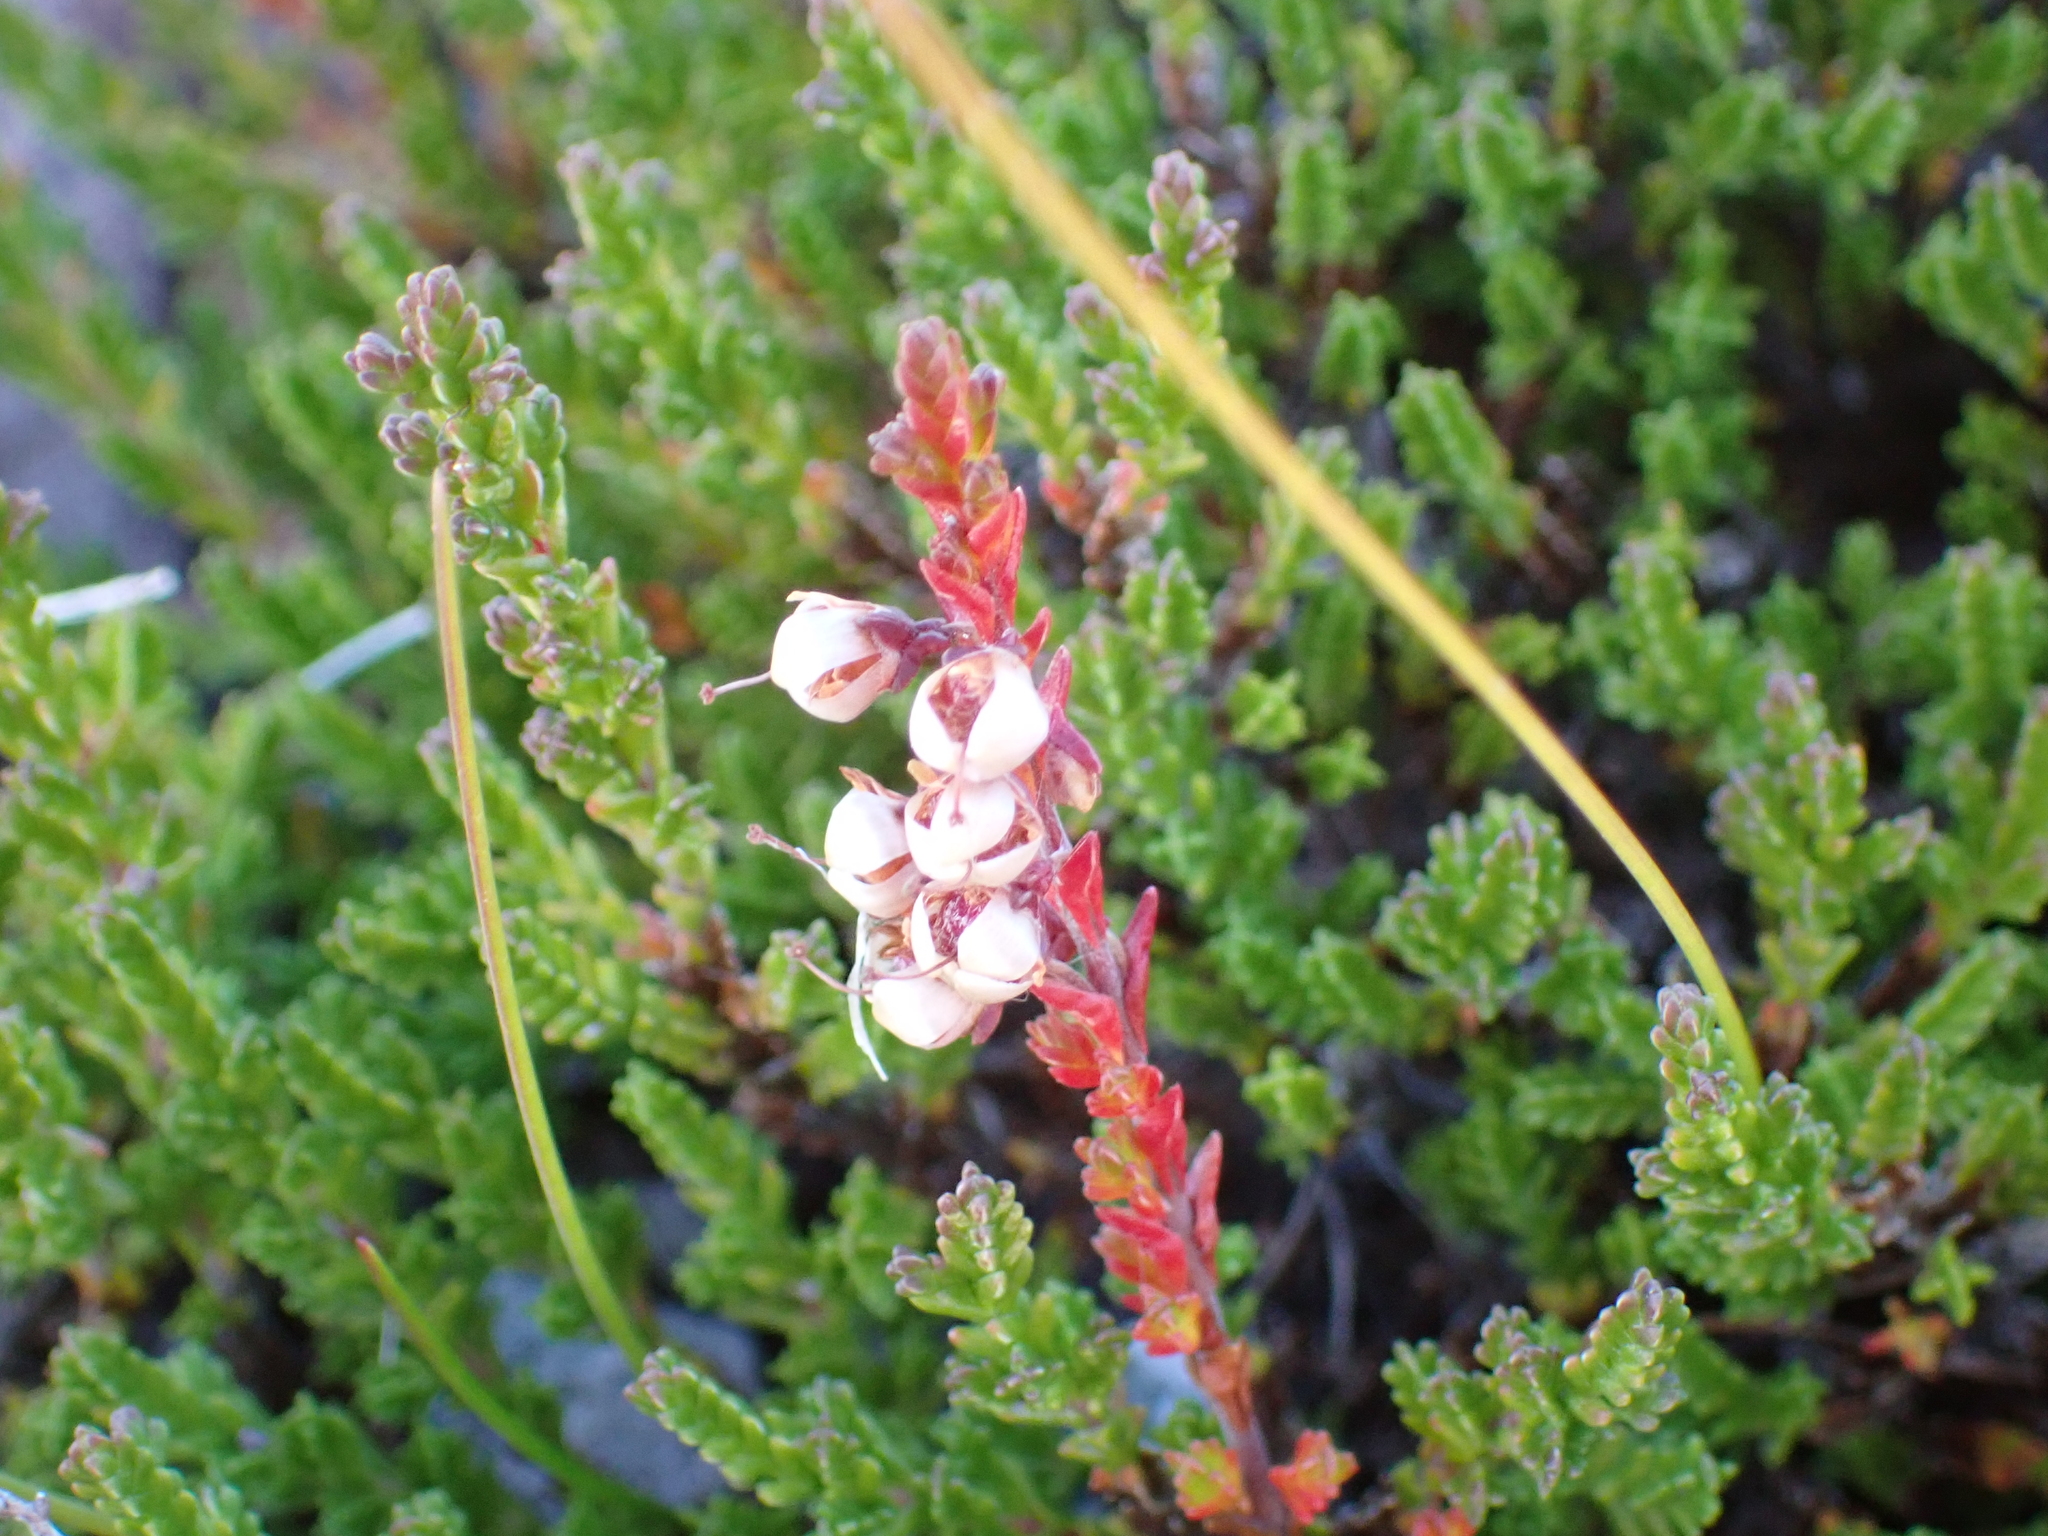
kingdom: Plantae
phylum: Tracheophyta
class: Magnoliopsida
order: Ericales
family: Ericaceae
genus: Calluna
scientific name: Calluna vulgaris
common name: Heather
